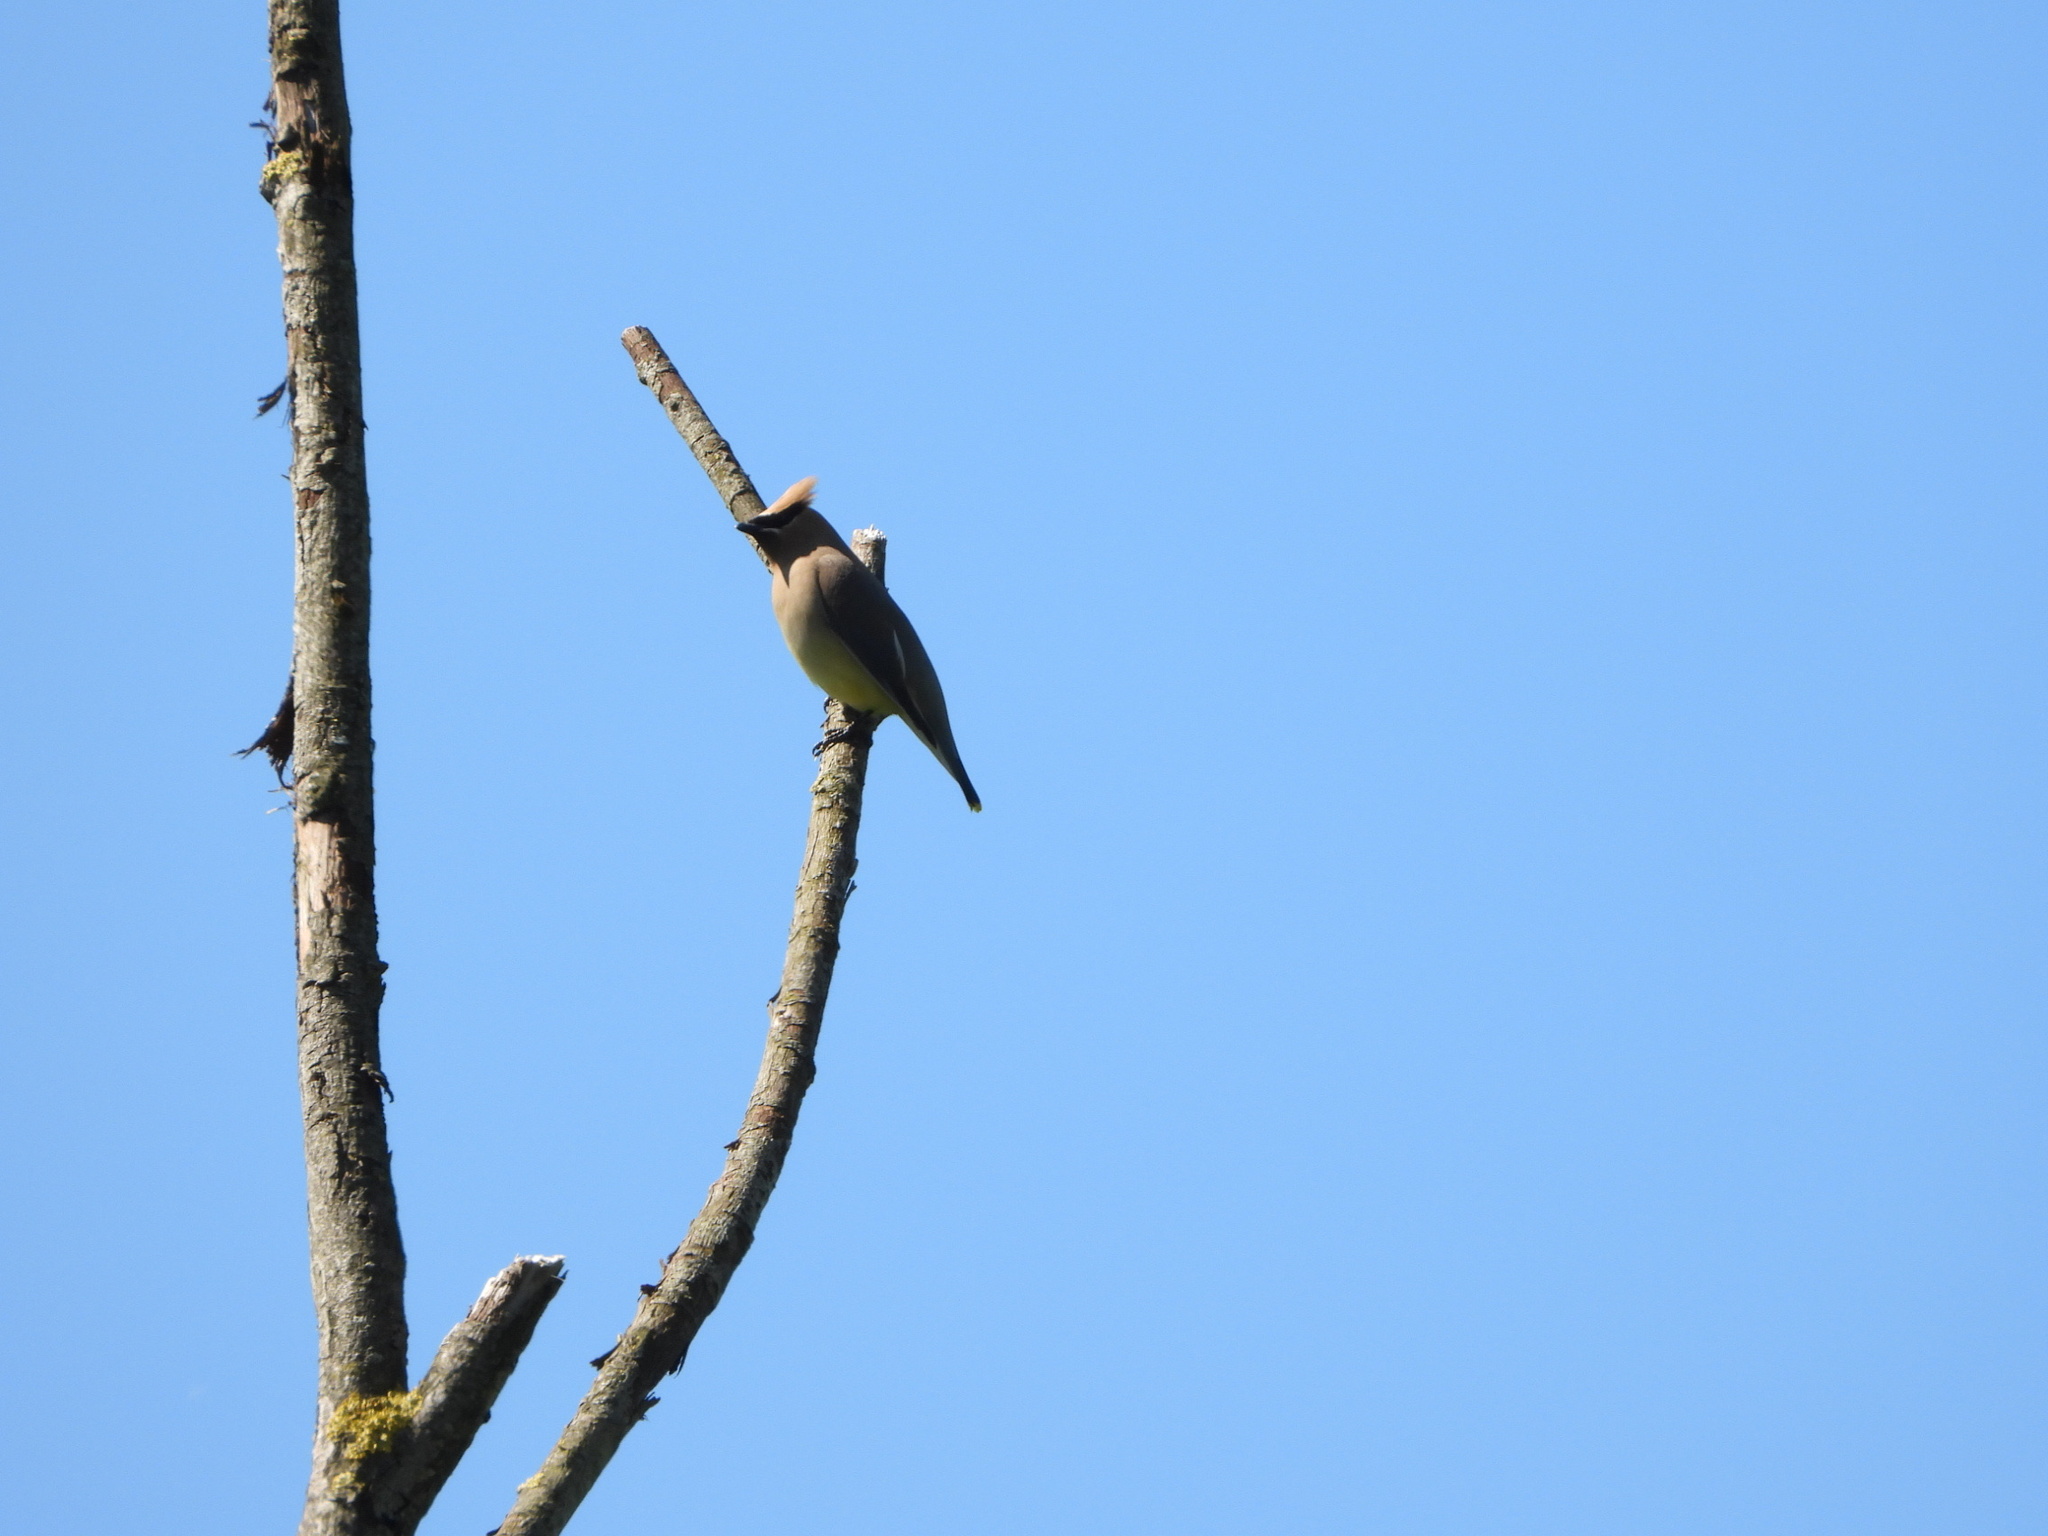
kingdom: Animalia
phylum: Chordata
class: Aves
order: Passeriformes
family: Bombycillidae
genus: Bombycilla
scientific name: Bombycilla cedrorum
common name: Cedar waxwing
